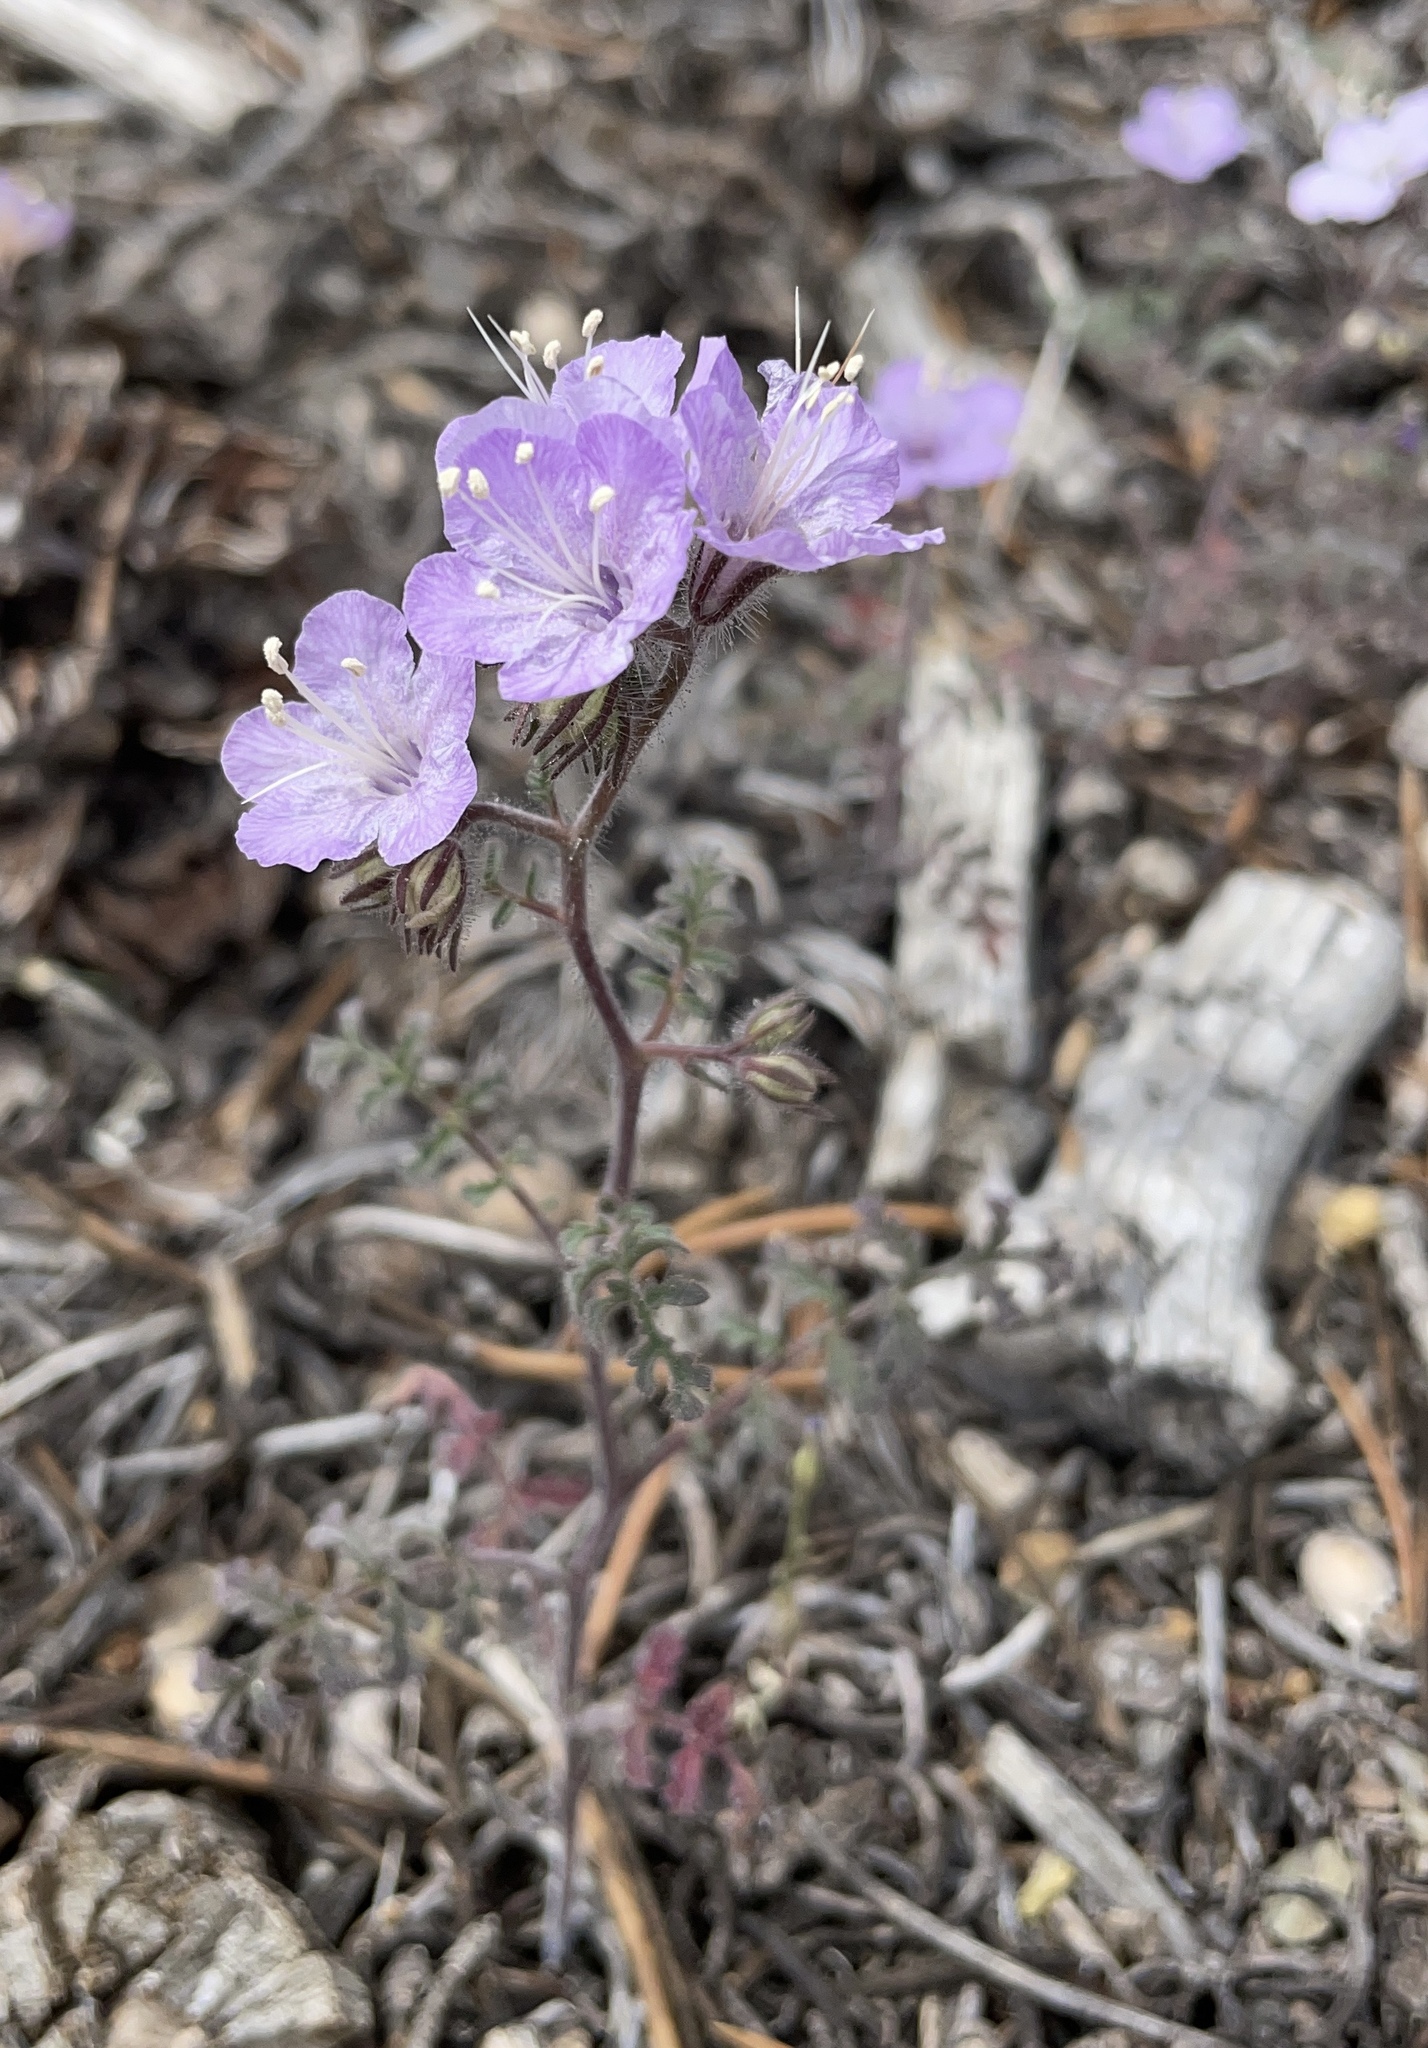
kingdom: Plantae
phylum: Tracheophyta
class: Magnoliopsida
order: Boraginales
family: Hydrophyllaceae
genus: Phacelia
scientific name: Phacelia vallis-mortae
